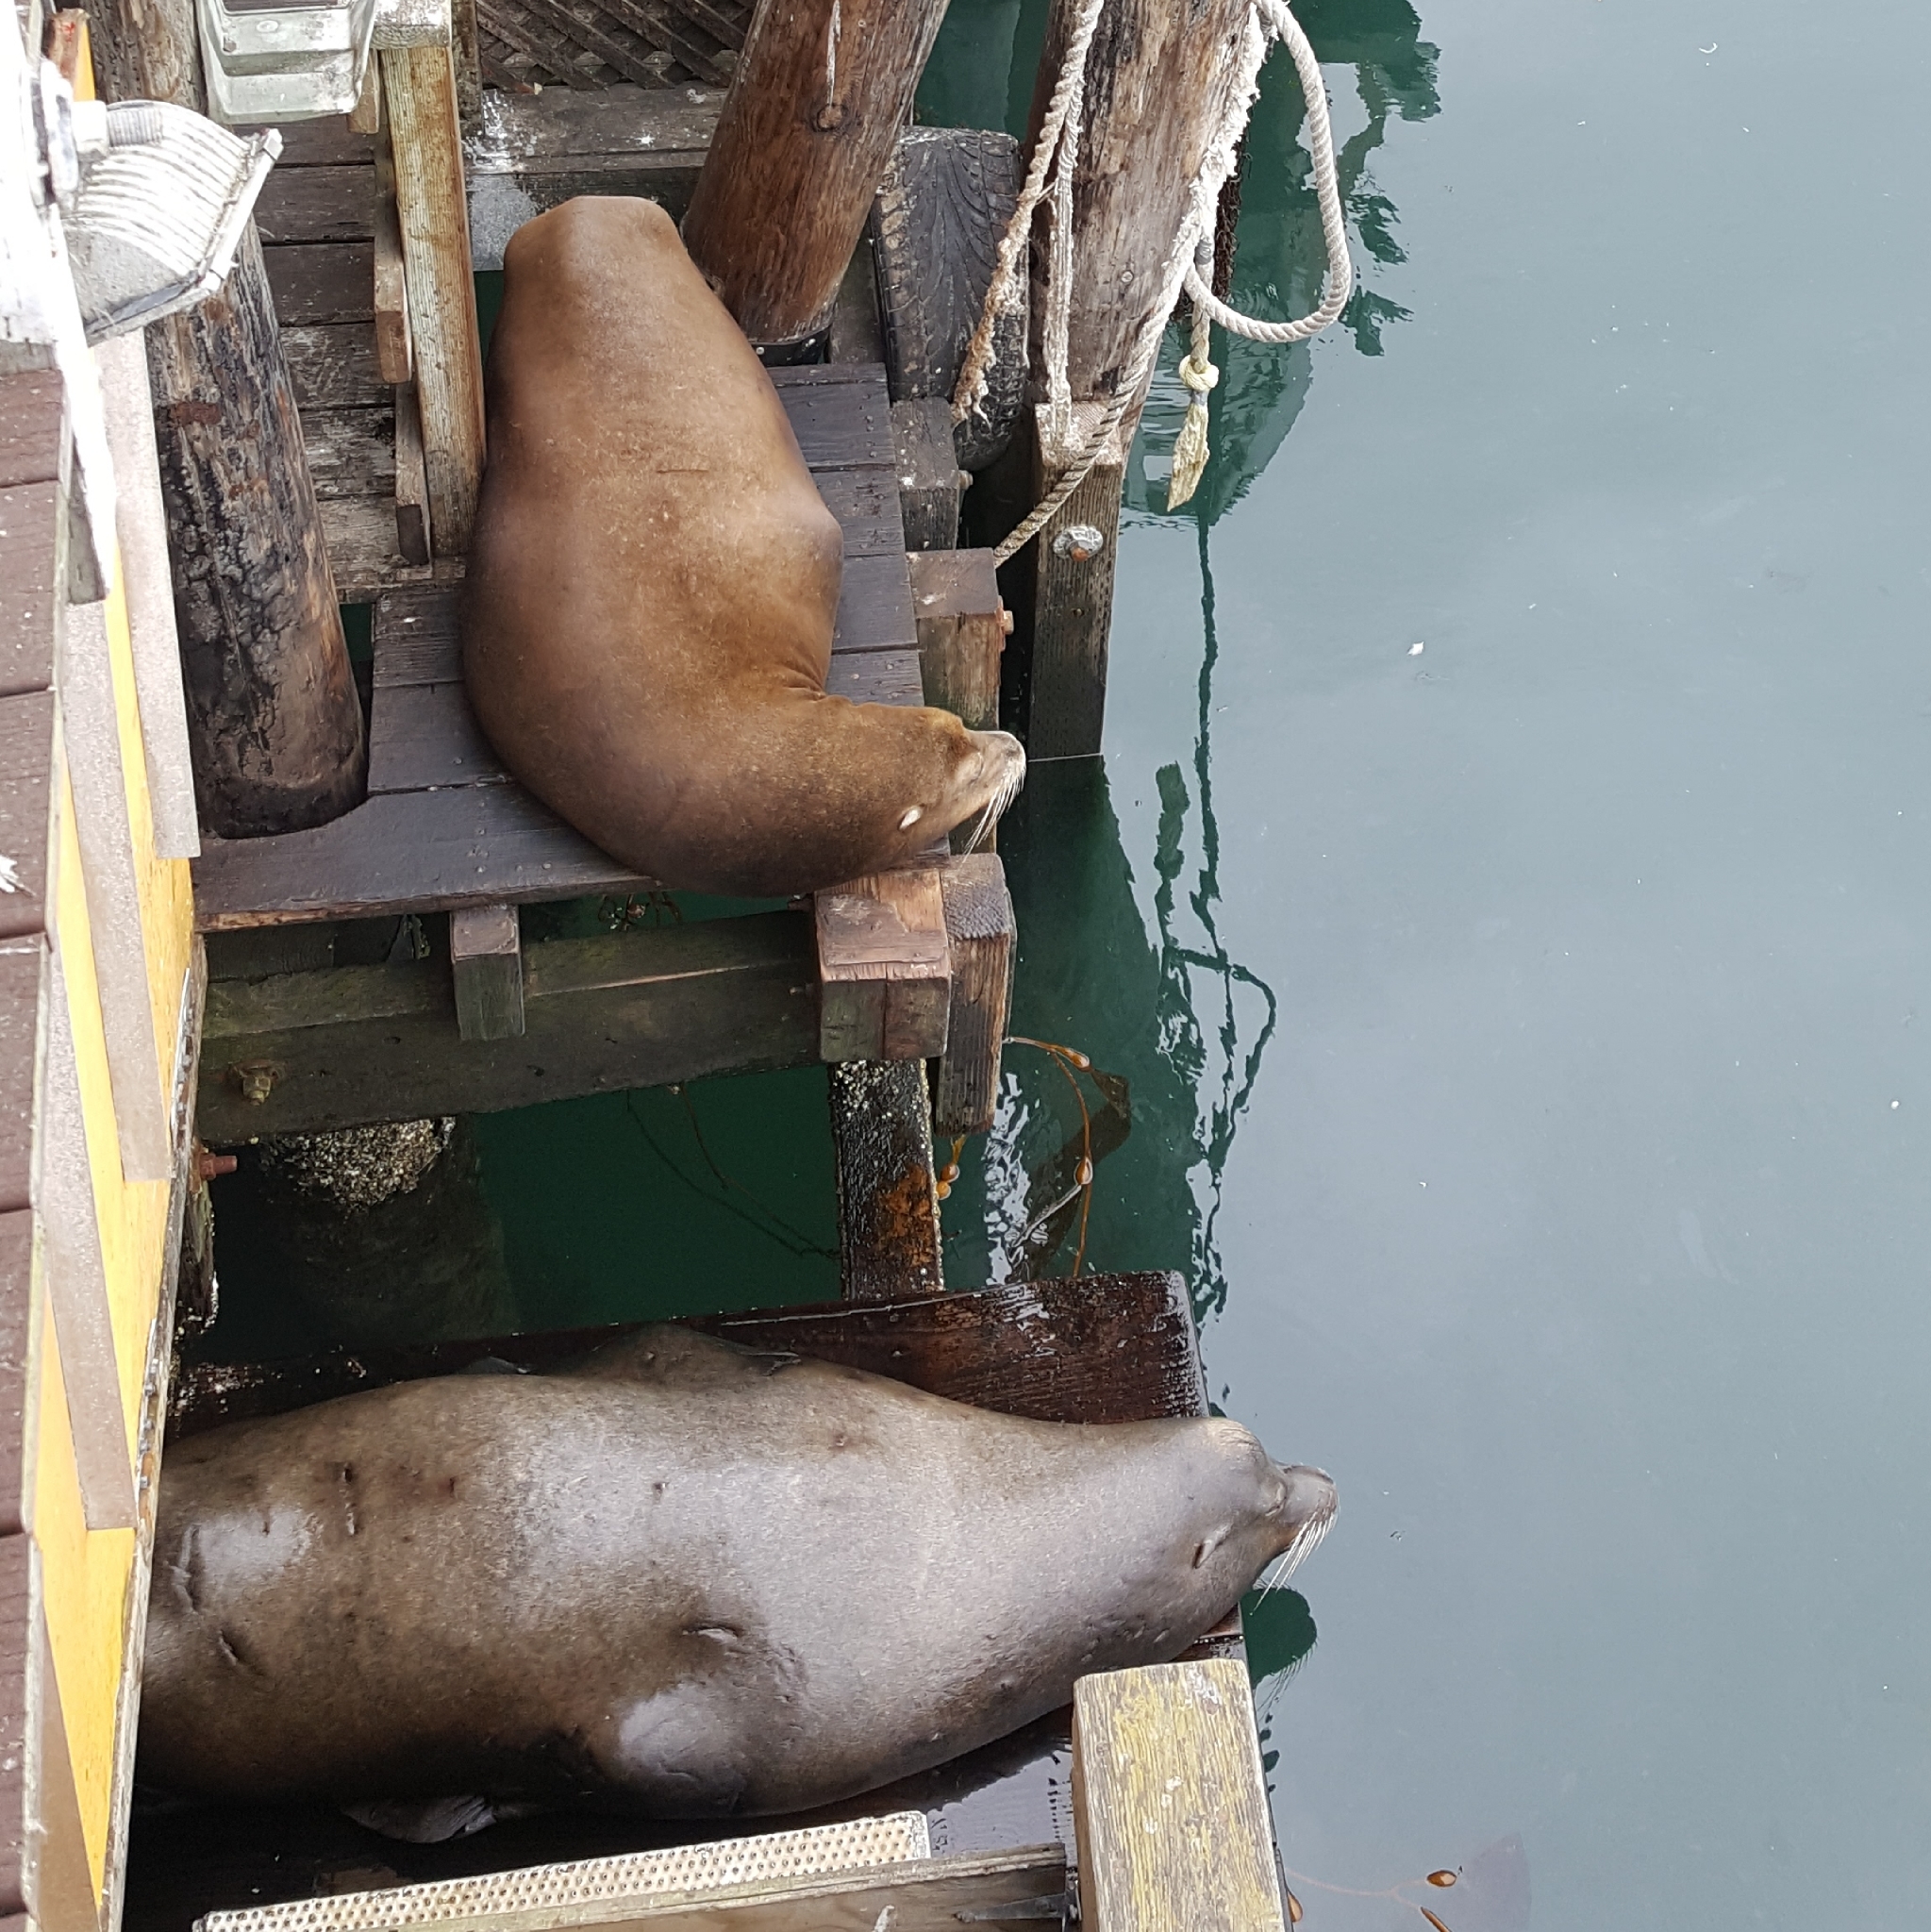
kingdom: Animalia
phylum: Chordata
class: Mammalia
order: Carnivora
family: Otariidae
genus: Zalophus
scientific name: Zalophus californianus
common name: California sea lion
